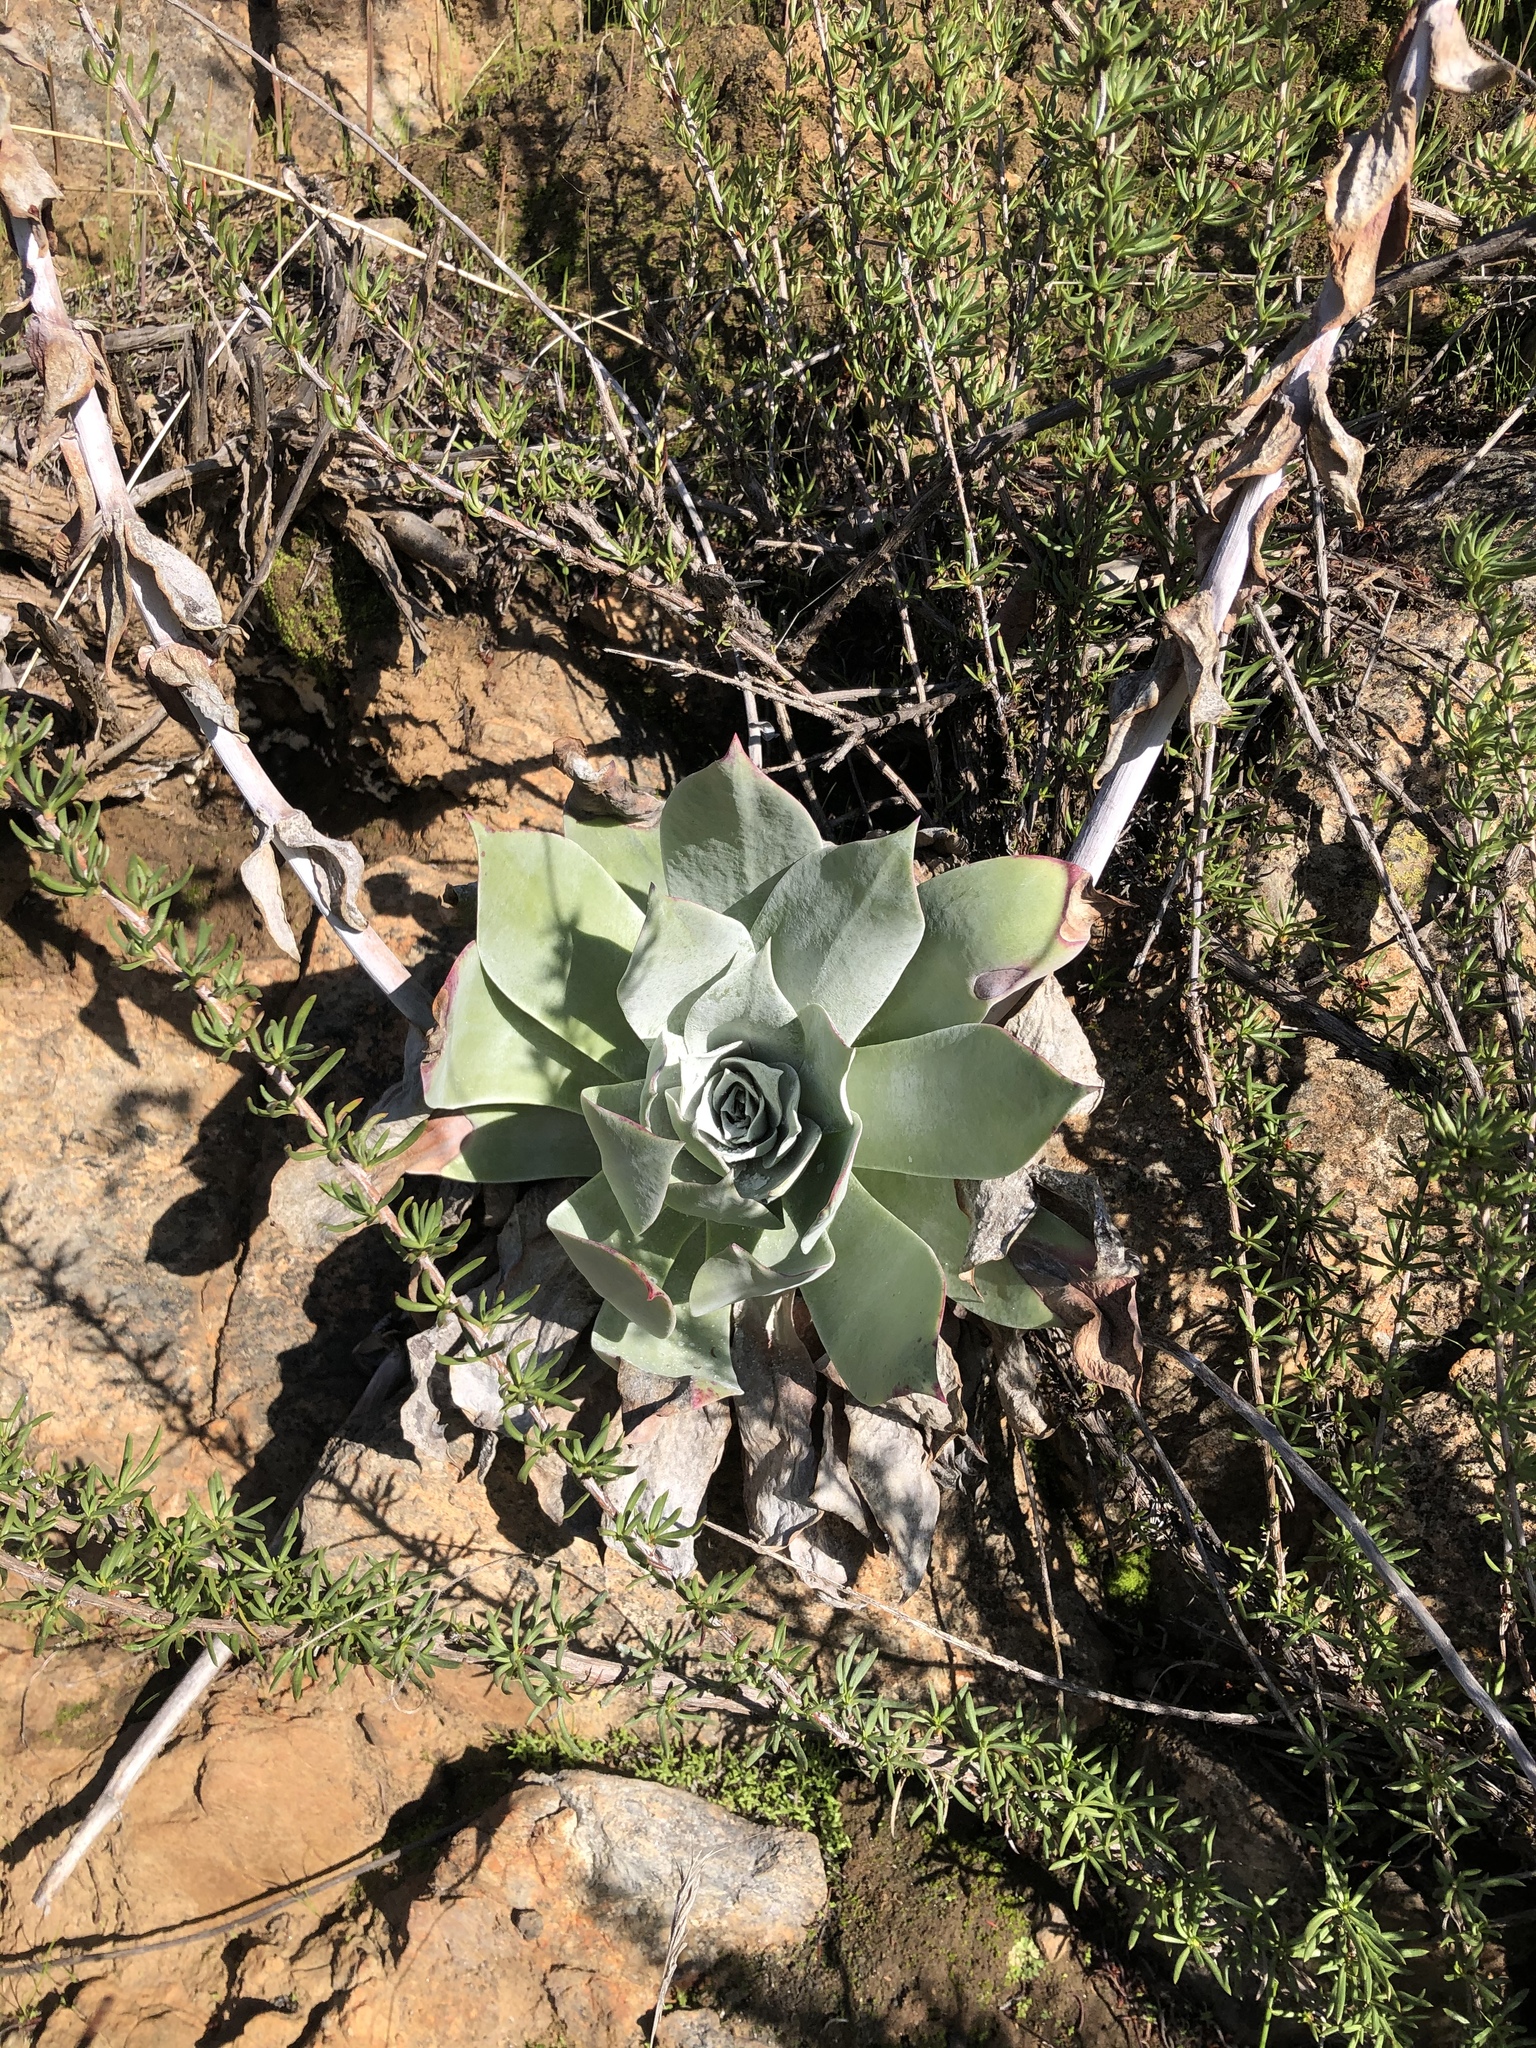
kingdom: Plantae
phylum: Tracheophyta
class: Magnoliopsida
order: Saxifragales
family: Crassulaceae
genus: Dudleya
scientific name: Dudleya pulverulenta
